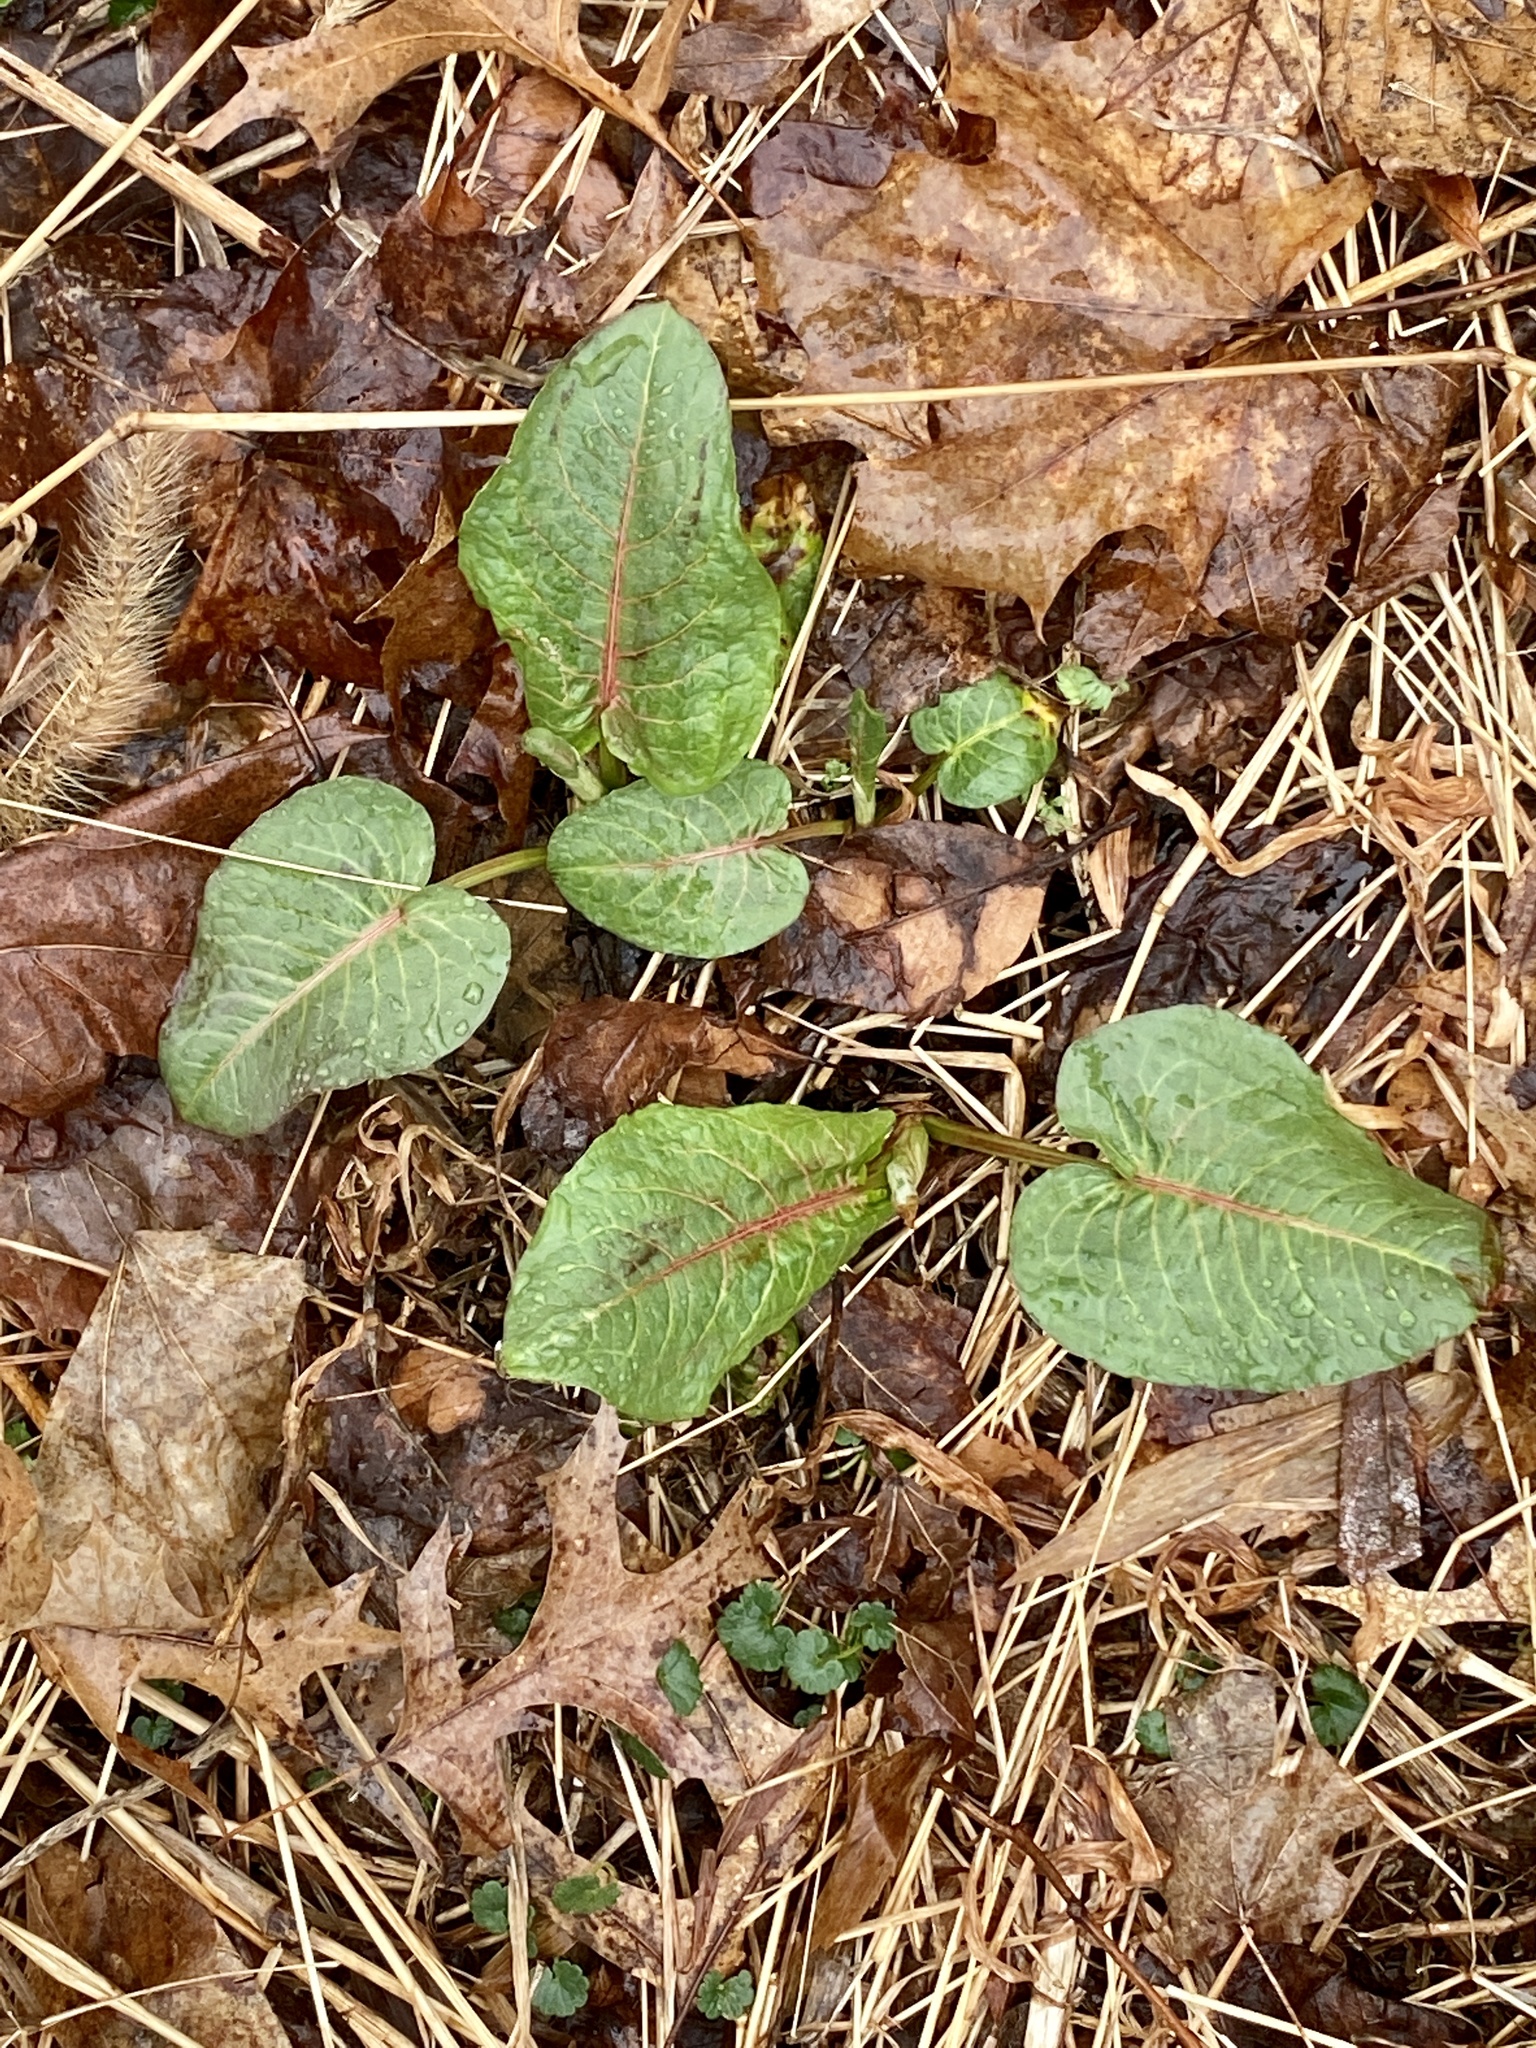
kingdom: Plantae
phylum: Tracheophyta
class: Magnoliopsida
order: Caryophyllales
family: Polygonaceae
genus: Rumex
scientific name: Rumex obtusifolius
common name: Bitter dock
